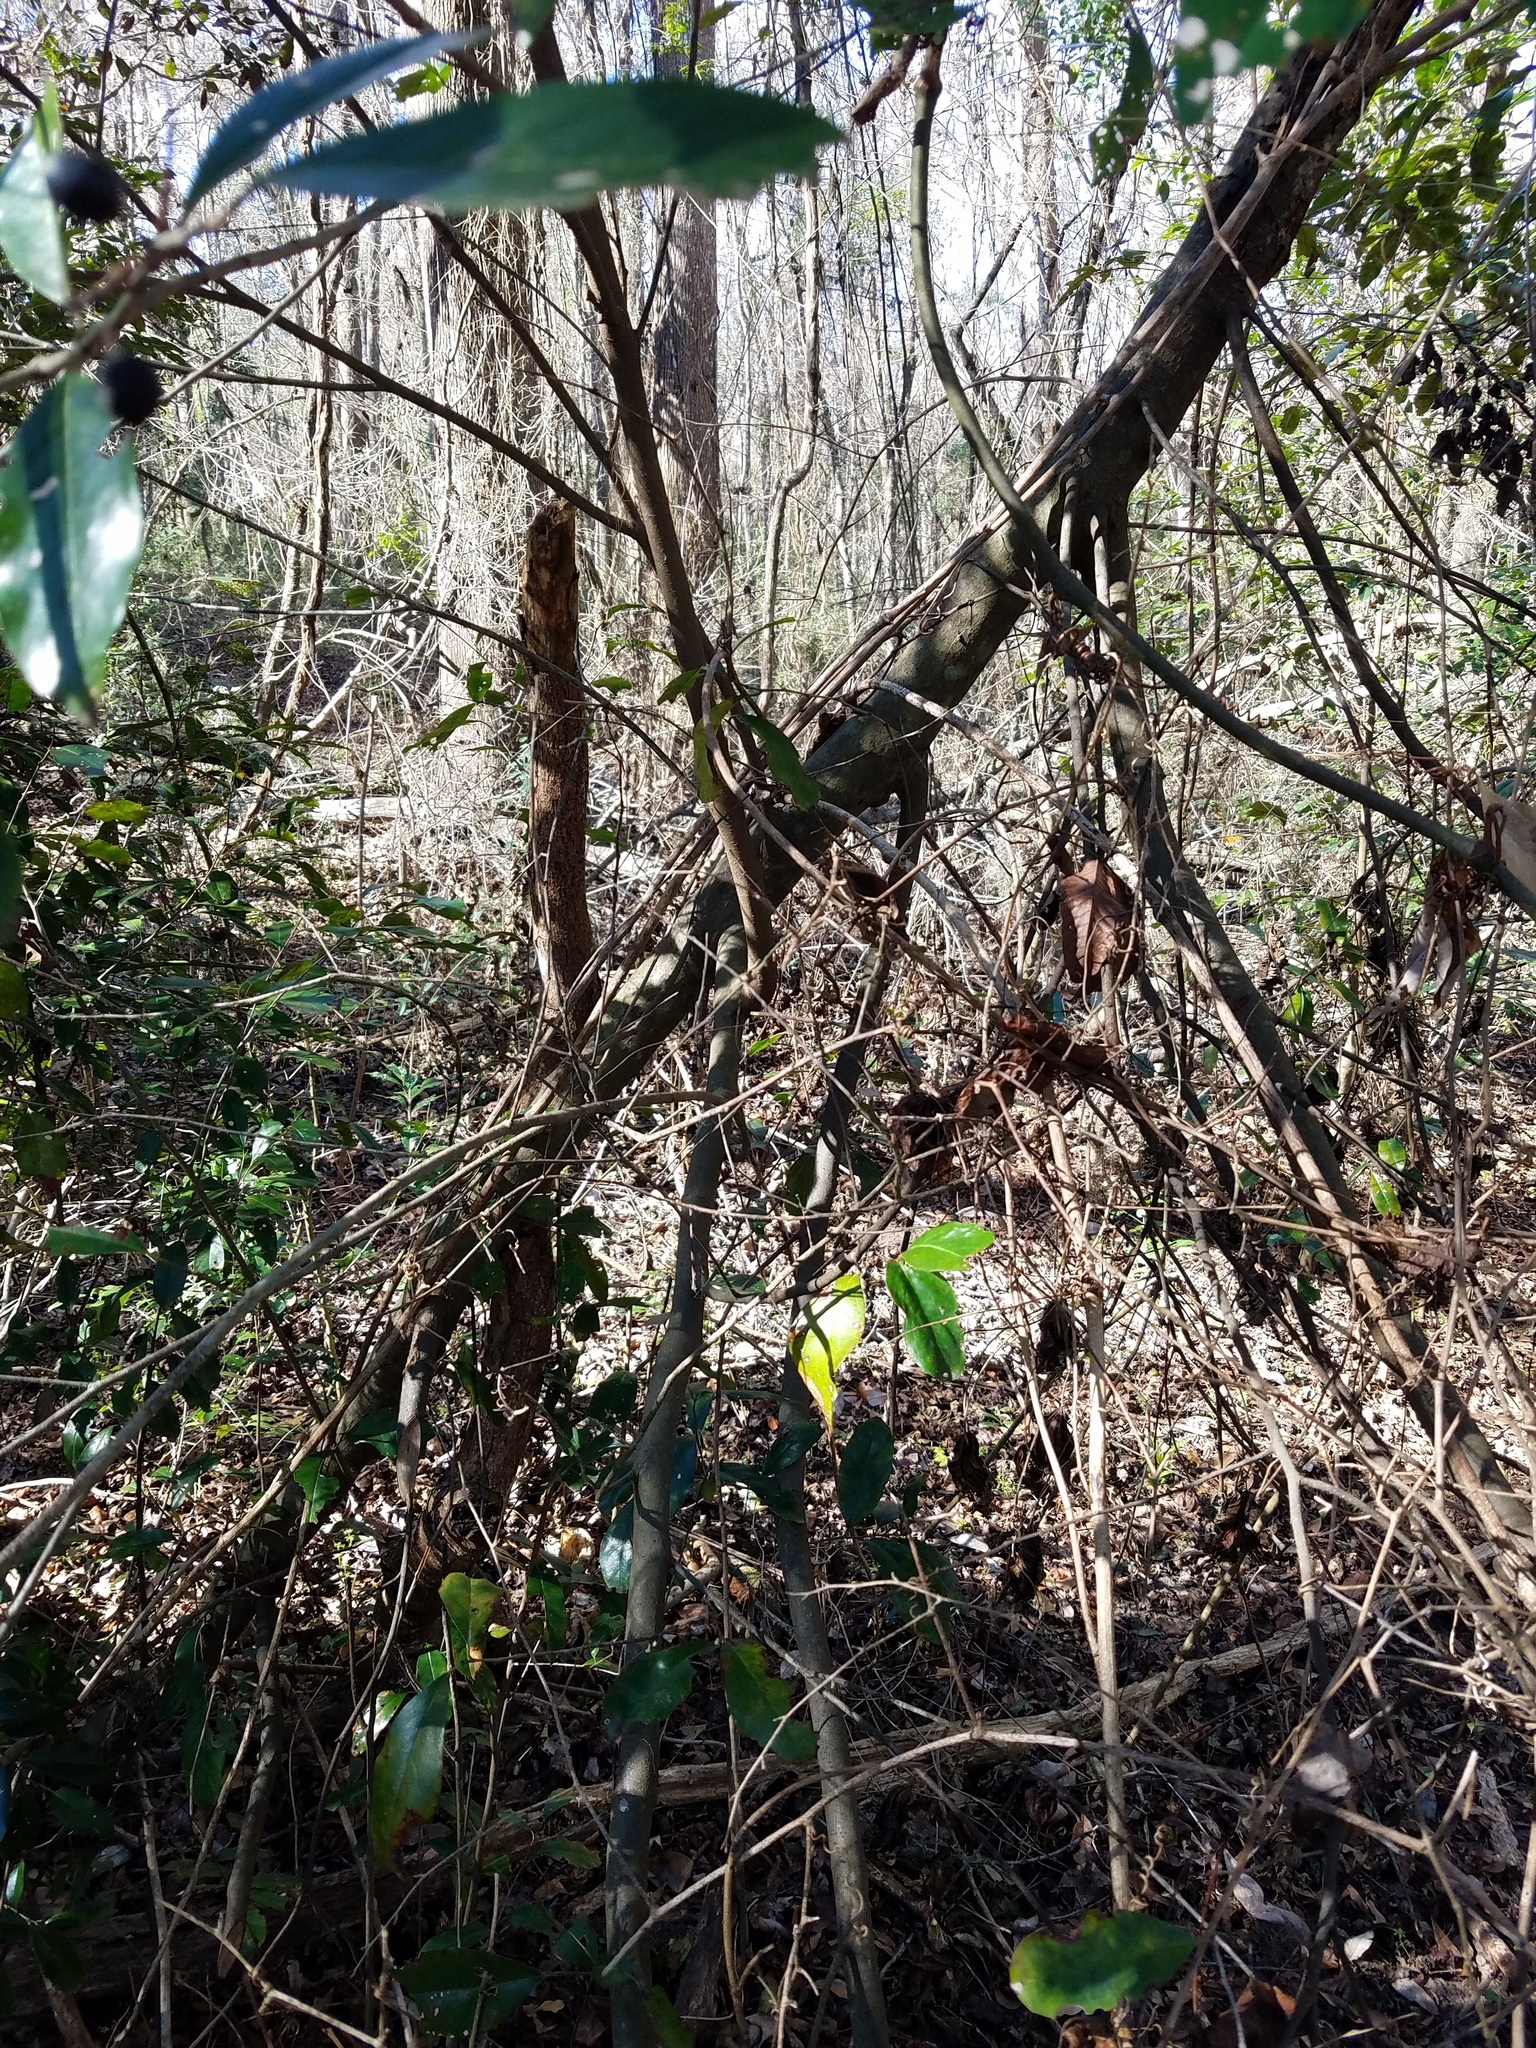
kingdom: Plantae
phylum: Tracheophyta
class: Magnoliopsida
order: Magnoliales
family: Magnoliaceae
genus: Magnolia
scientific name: Magnolia virginiana
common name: Swamp bay
